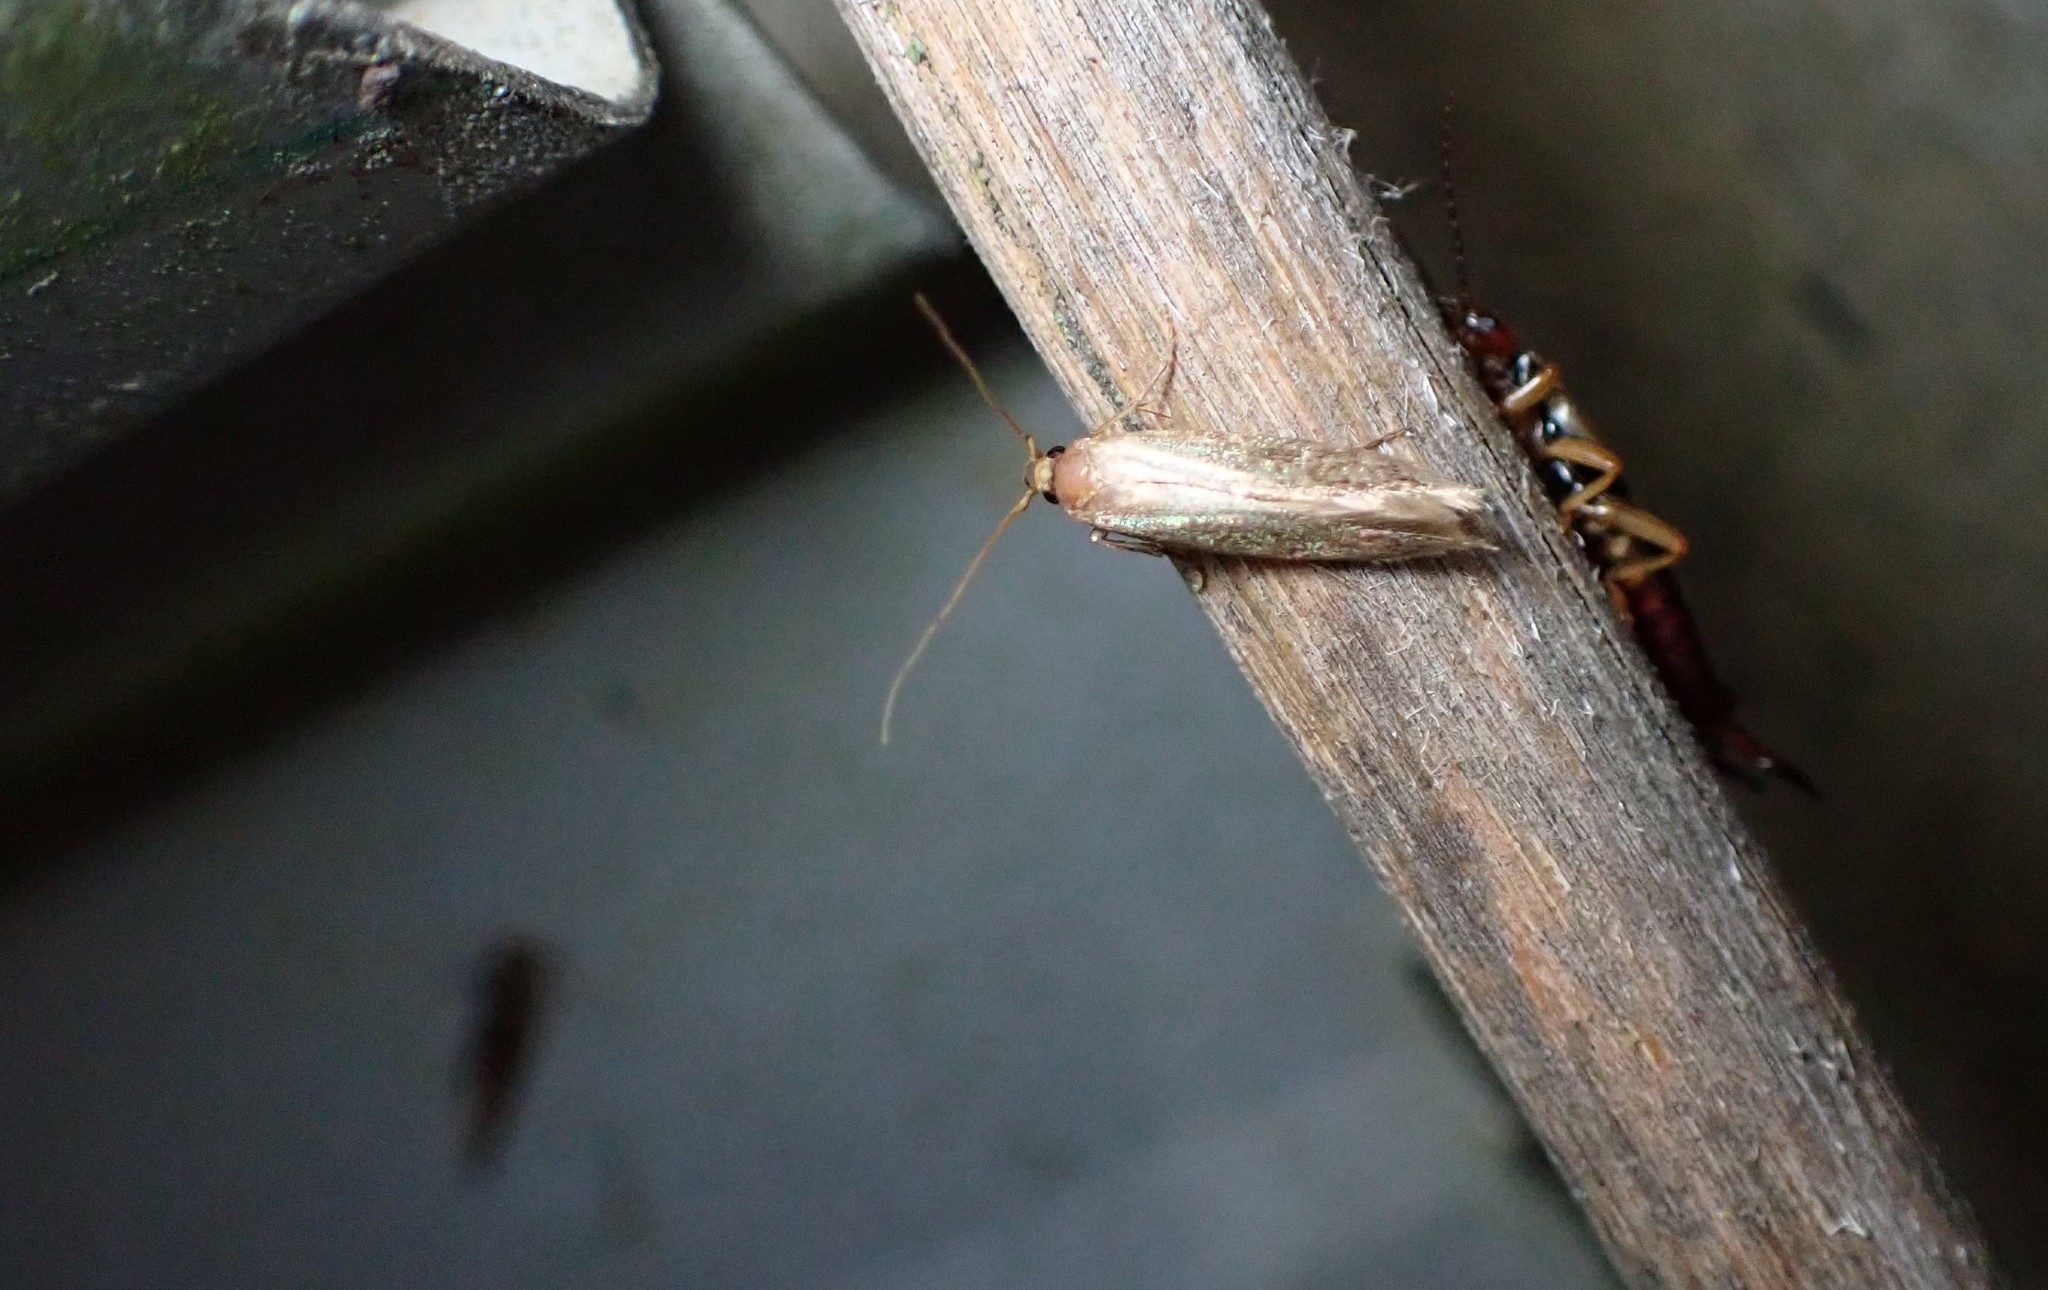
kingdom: Animalia
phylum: Arthropoda
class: Insecta
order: Lepidoptera
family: Tineidae
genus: Opogona
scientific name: Opogona omoscopa
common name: Moth
